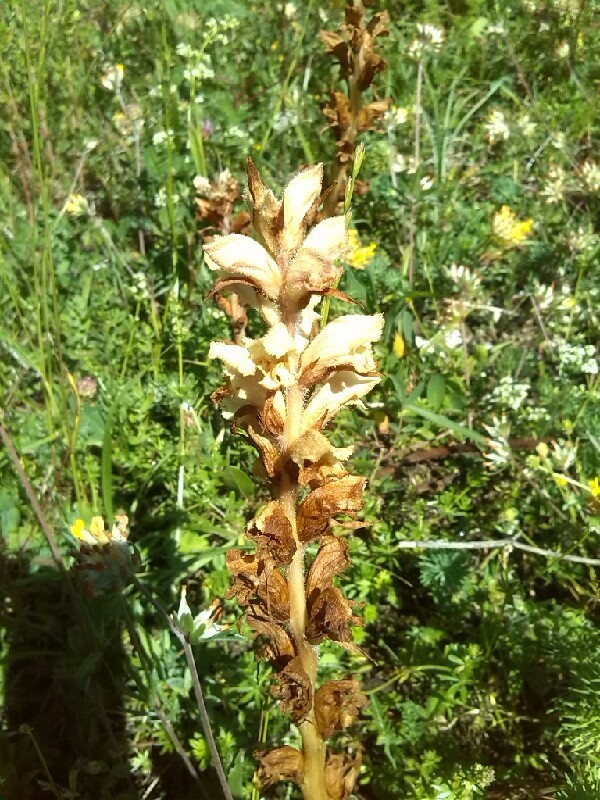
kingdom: Plantae
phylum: Tracheophyta
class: Magnoliopsida
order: Lamiales
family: Orobanchaceae
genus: Orobanche
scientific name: Orobanche caryophyllacea
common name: Bedstraw broomrape
